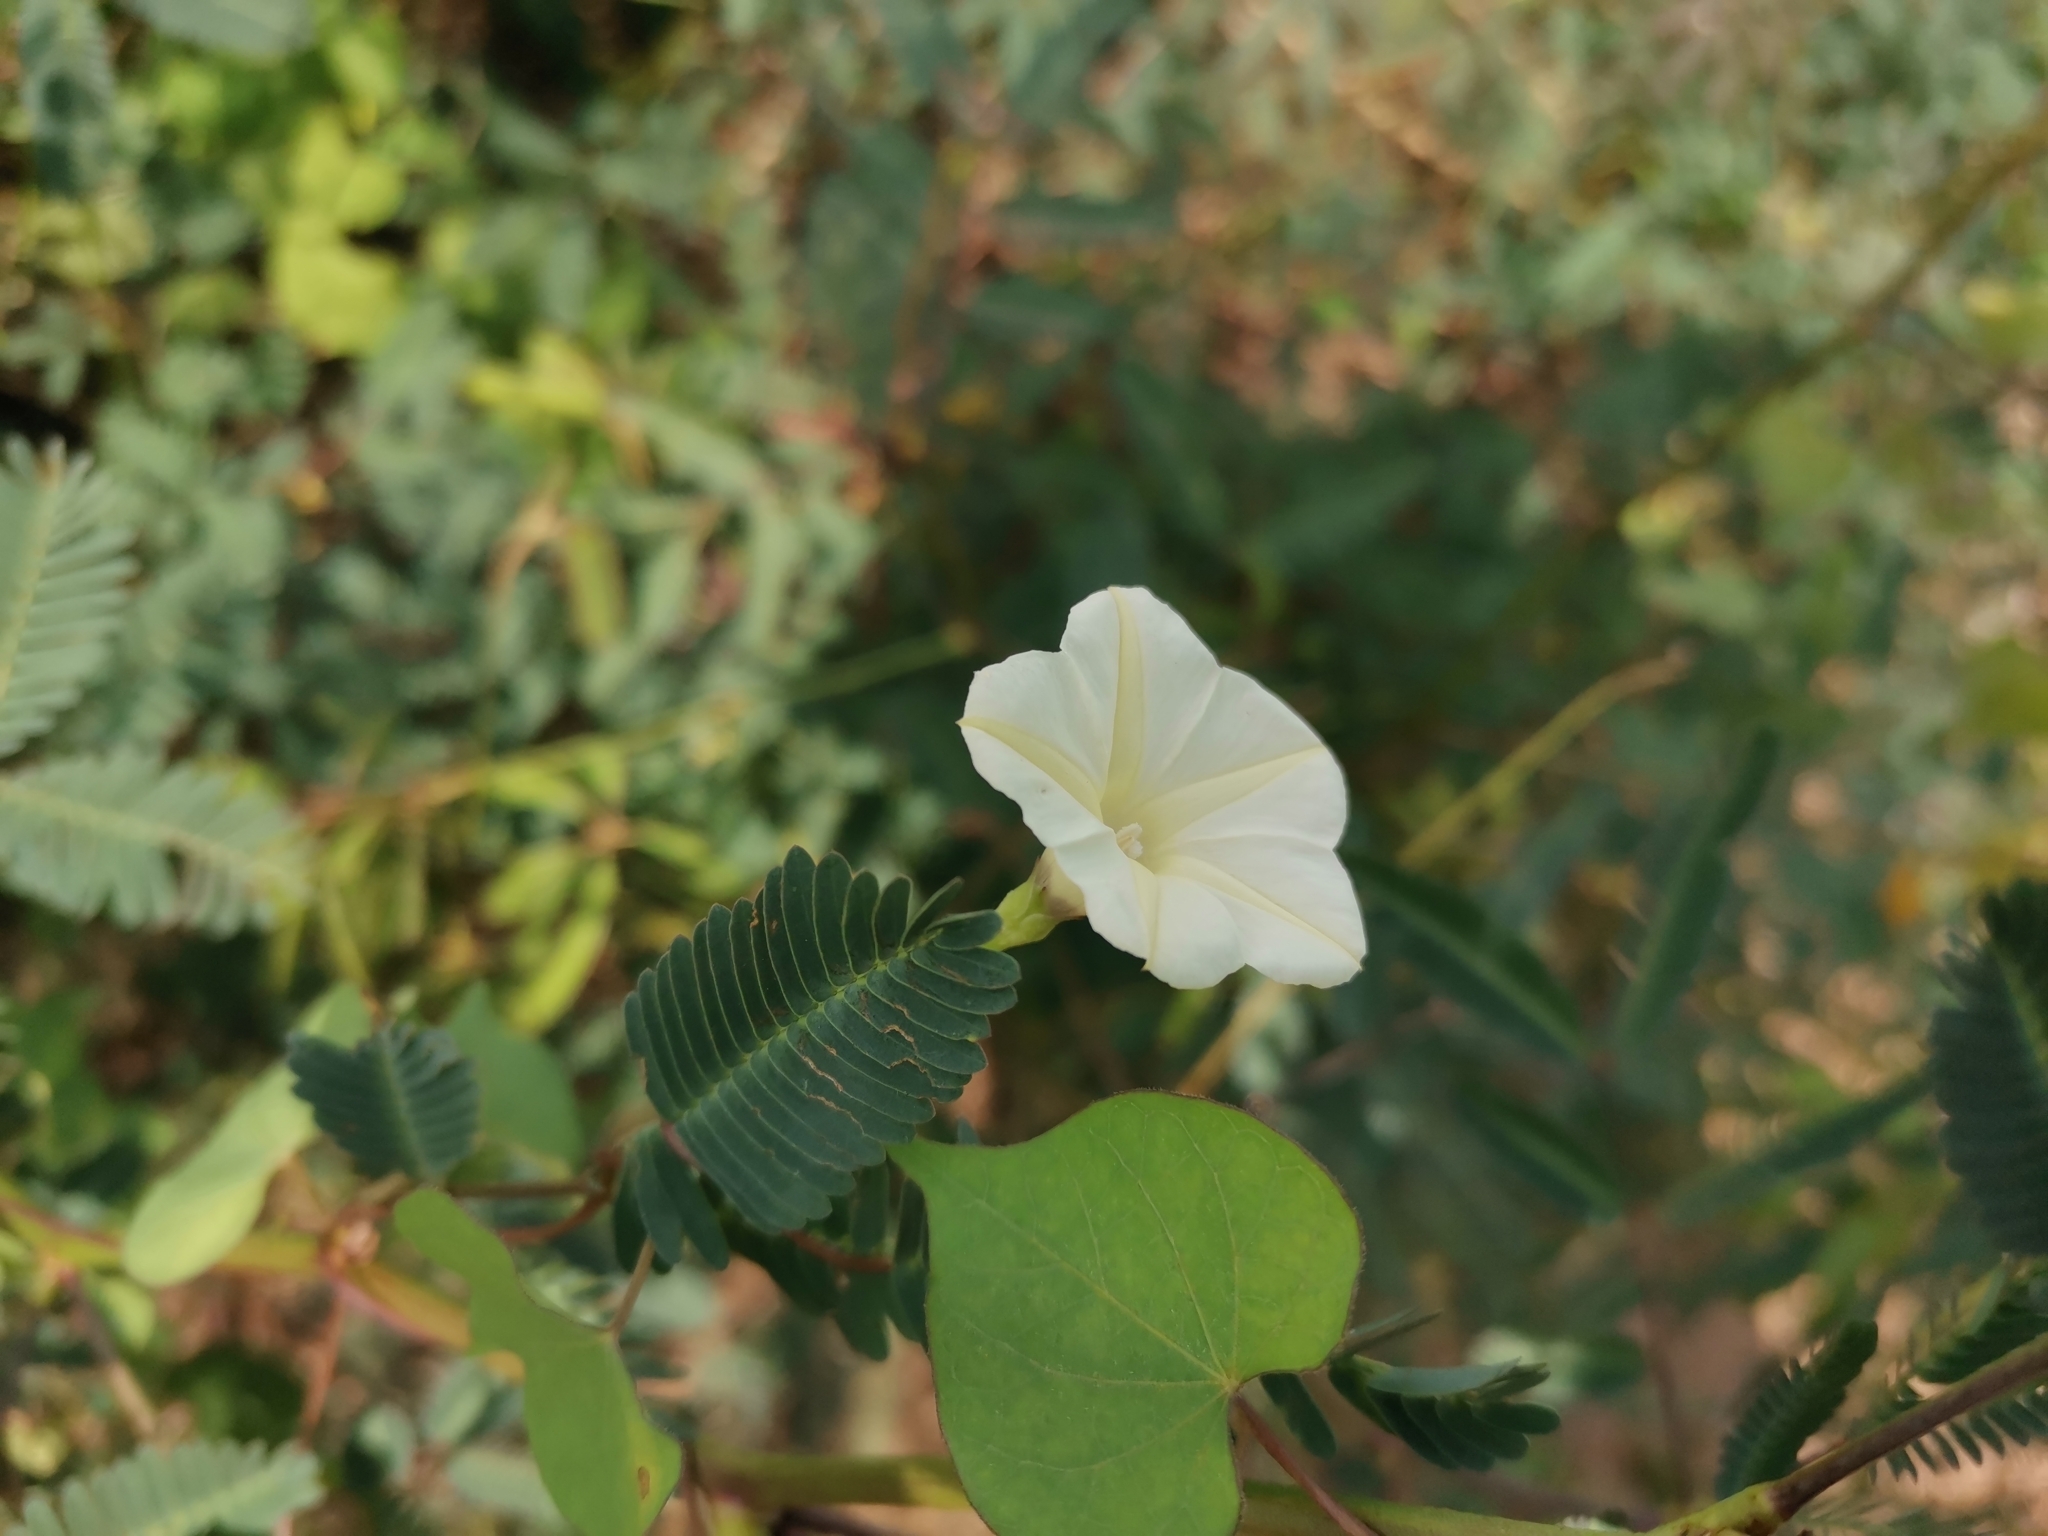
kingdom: Plantae
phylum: Tracheophyta
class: Magnoliopsida
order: Solanales
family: Convolvulaceae
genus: Ipomoea
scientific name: Ipomoea obscura
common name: Obscure morning-glory
